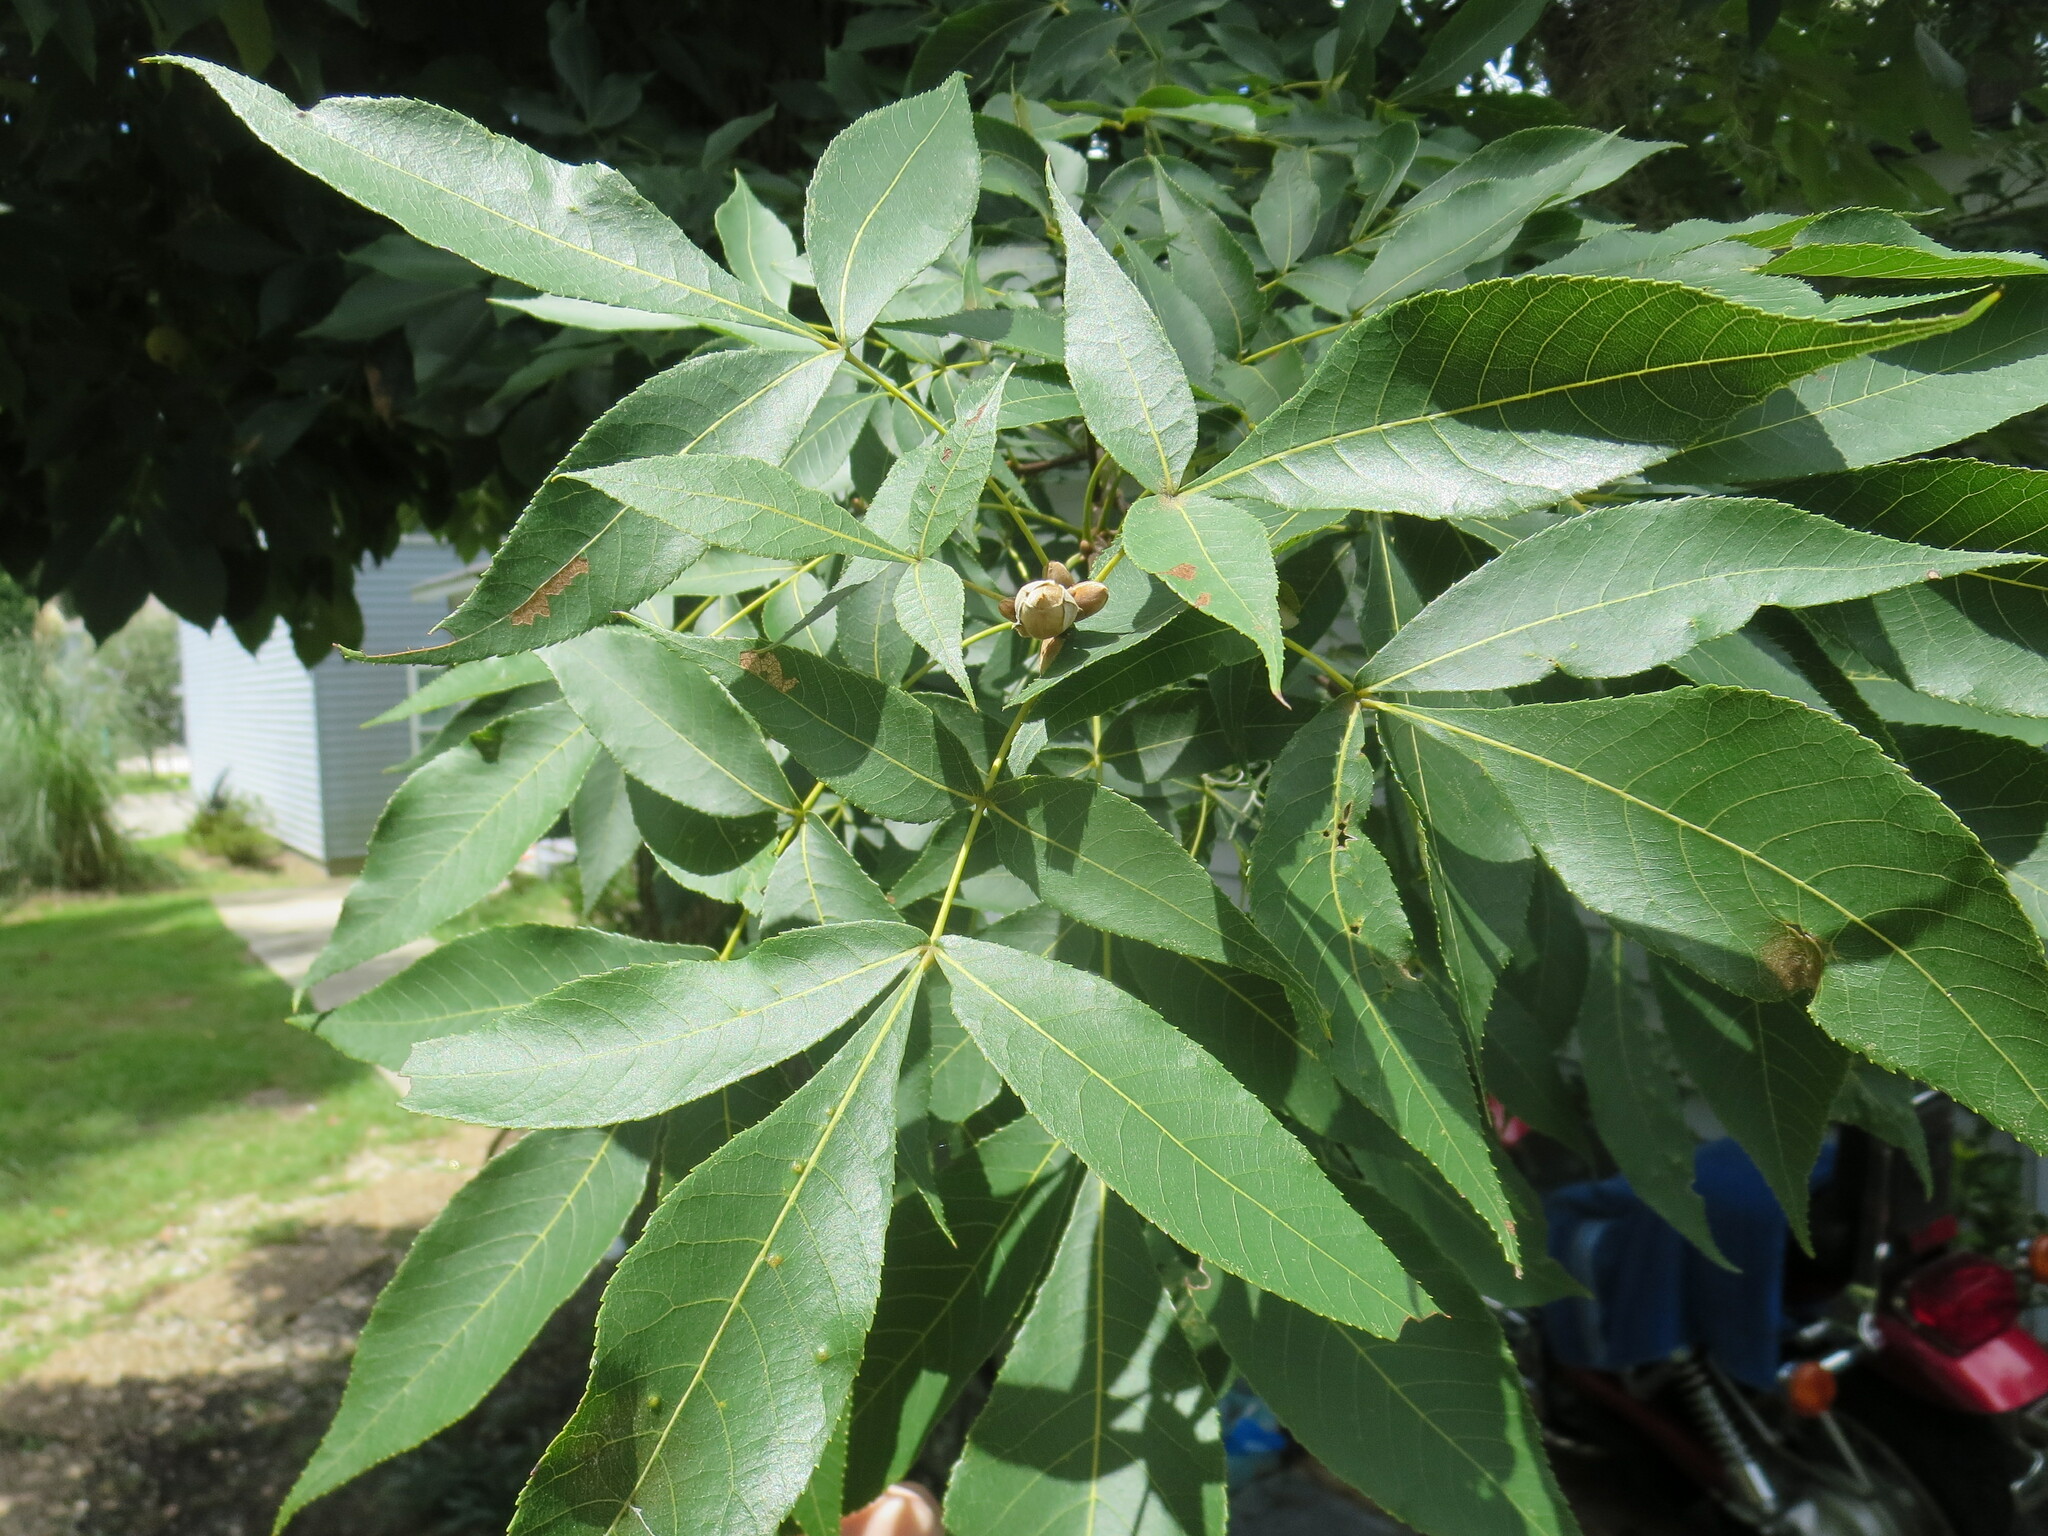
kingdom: Plantae
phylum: Tracheophyta
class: Magnoliopsida
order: Fagales
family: Juglandaceae
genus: Carya
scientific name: Carya glabra
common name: Pignut hickory
